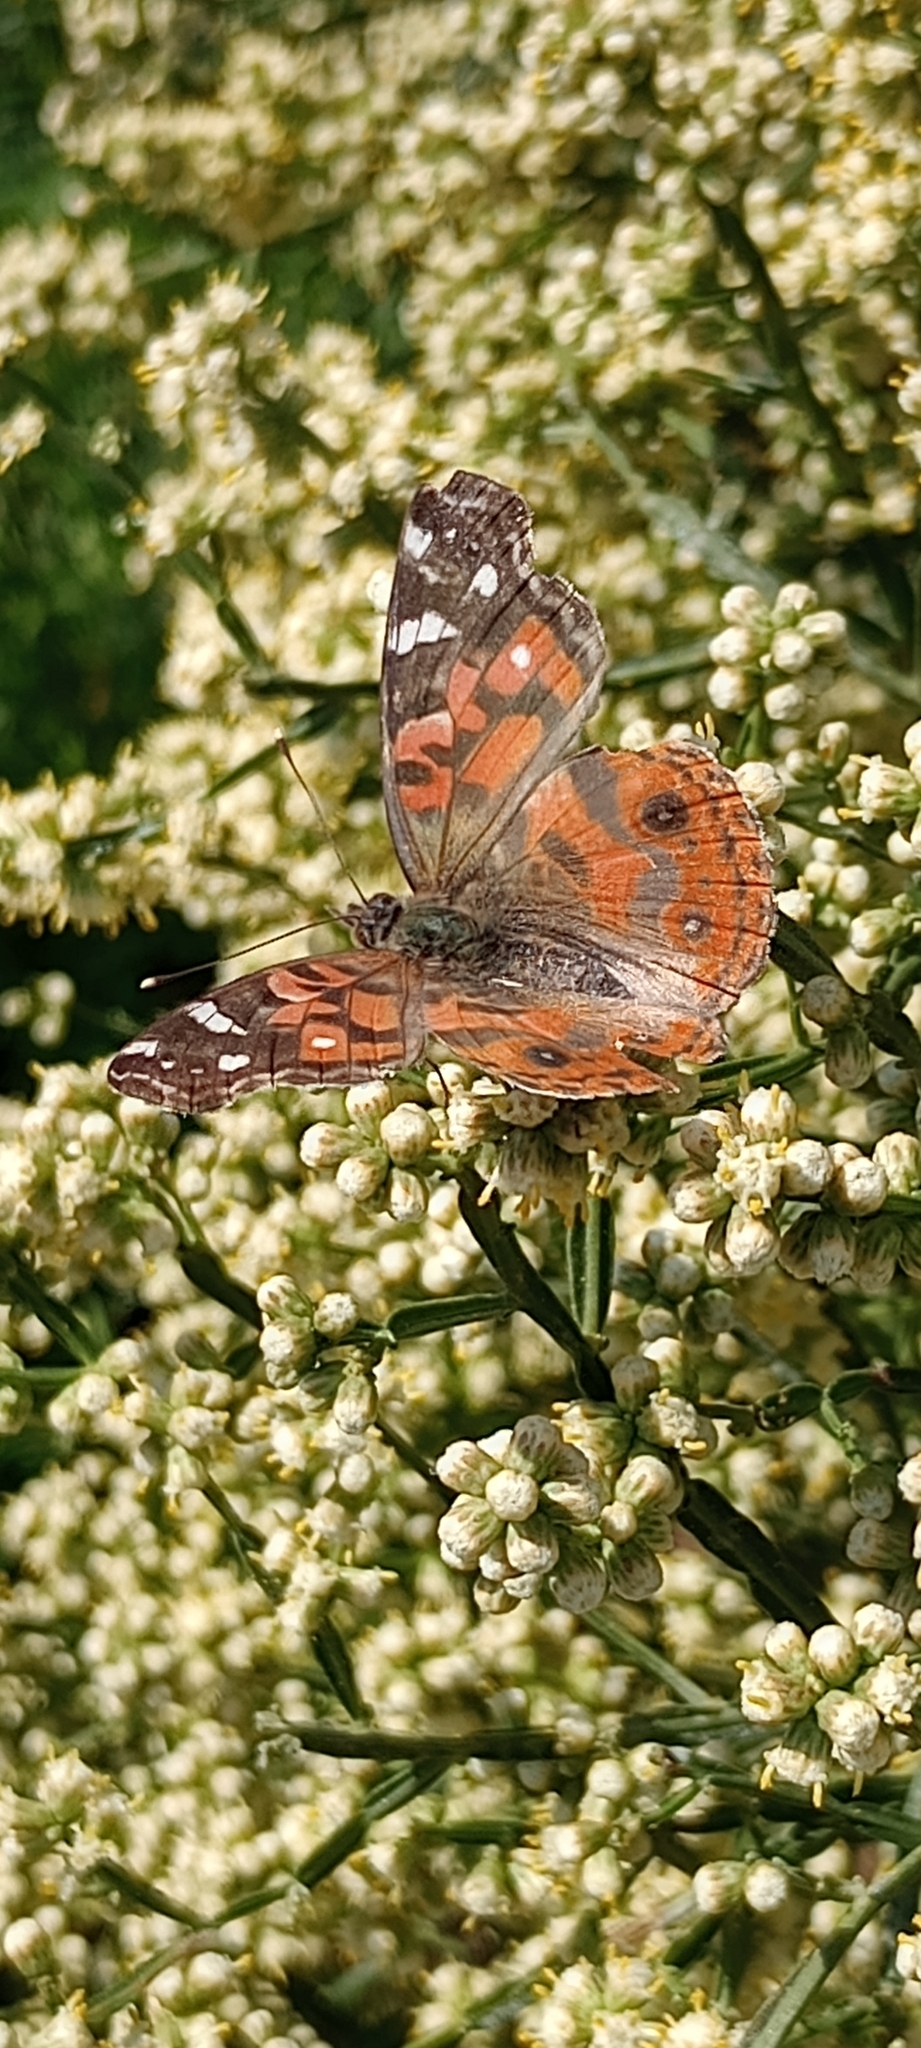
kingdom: Animalia
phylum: Arthropoda
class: Insecta
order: Lepidoptera
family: Nymphalidae
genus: Vanessa
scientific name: Vanessa braziliensis
